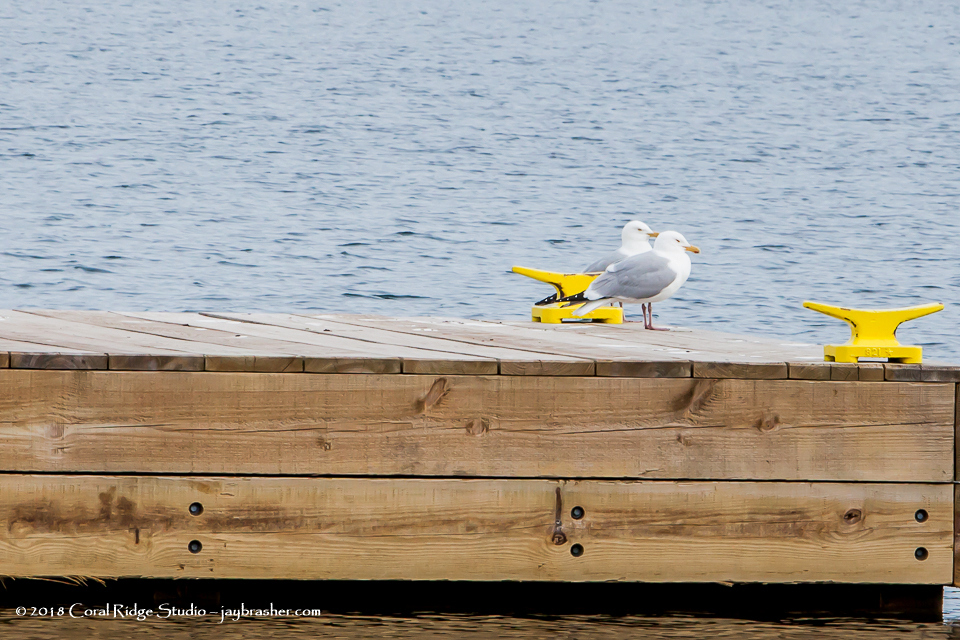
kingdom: Animalia
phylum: Chordata
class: Aves
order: Charadriiformes
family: Laridae
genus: Larus
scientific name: Larus argentatus
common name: Herring gull
